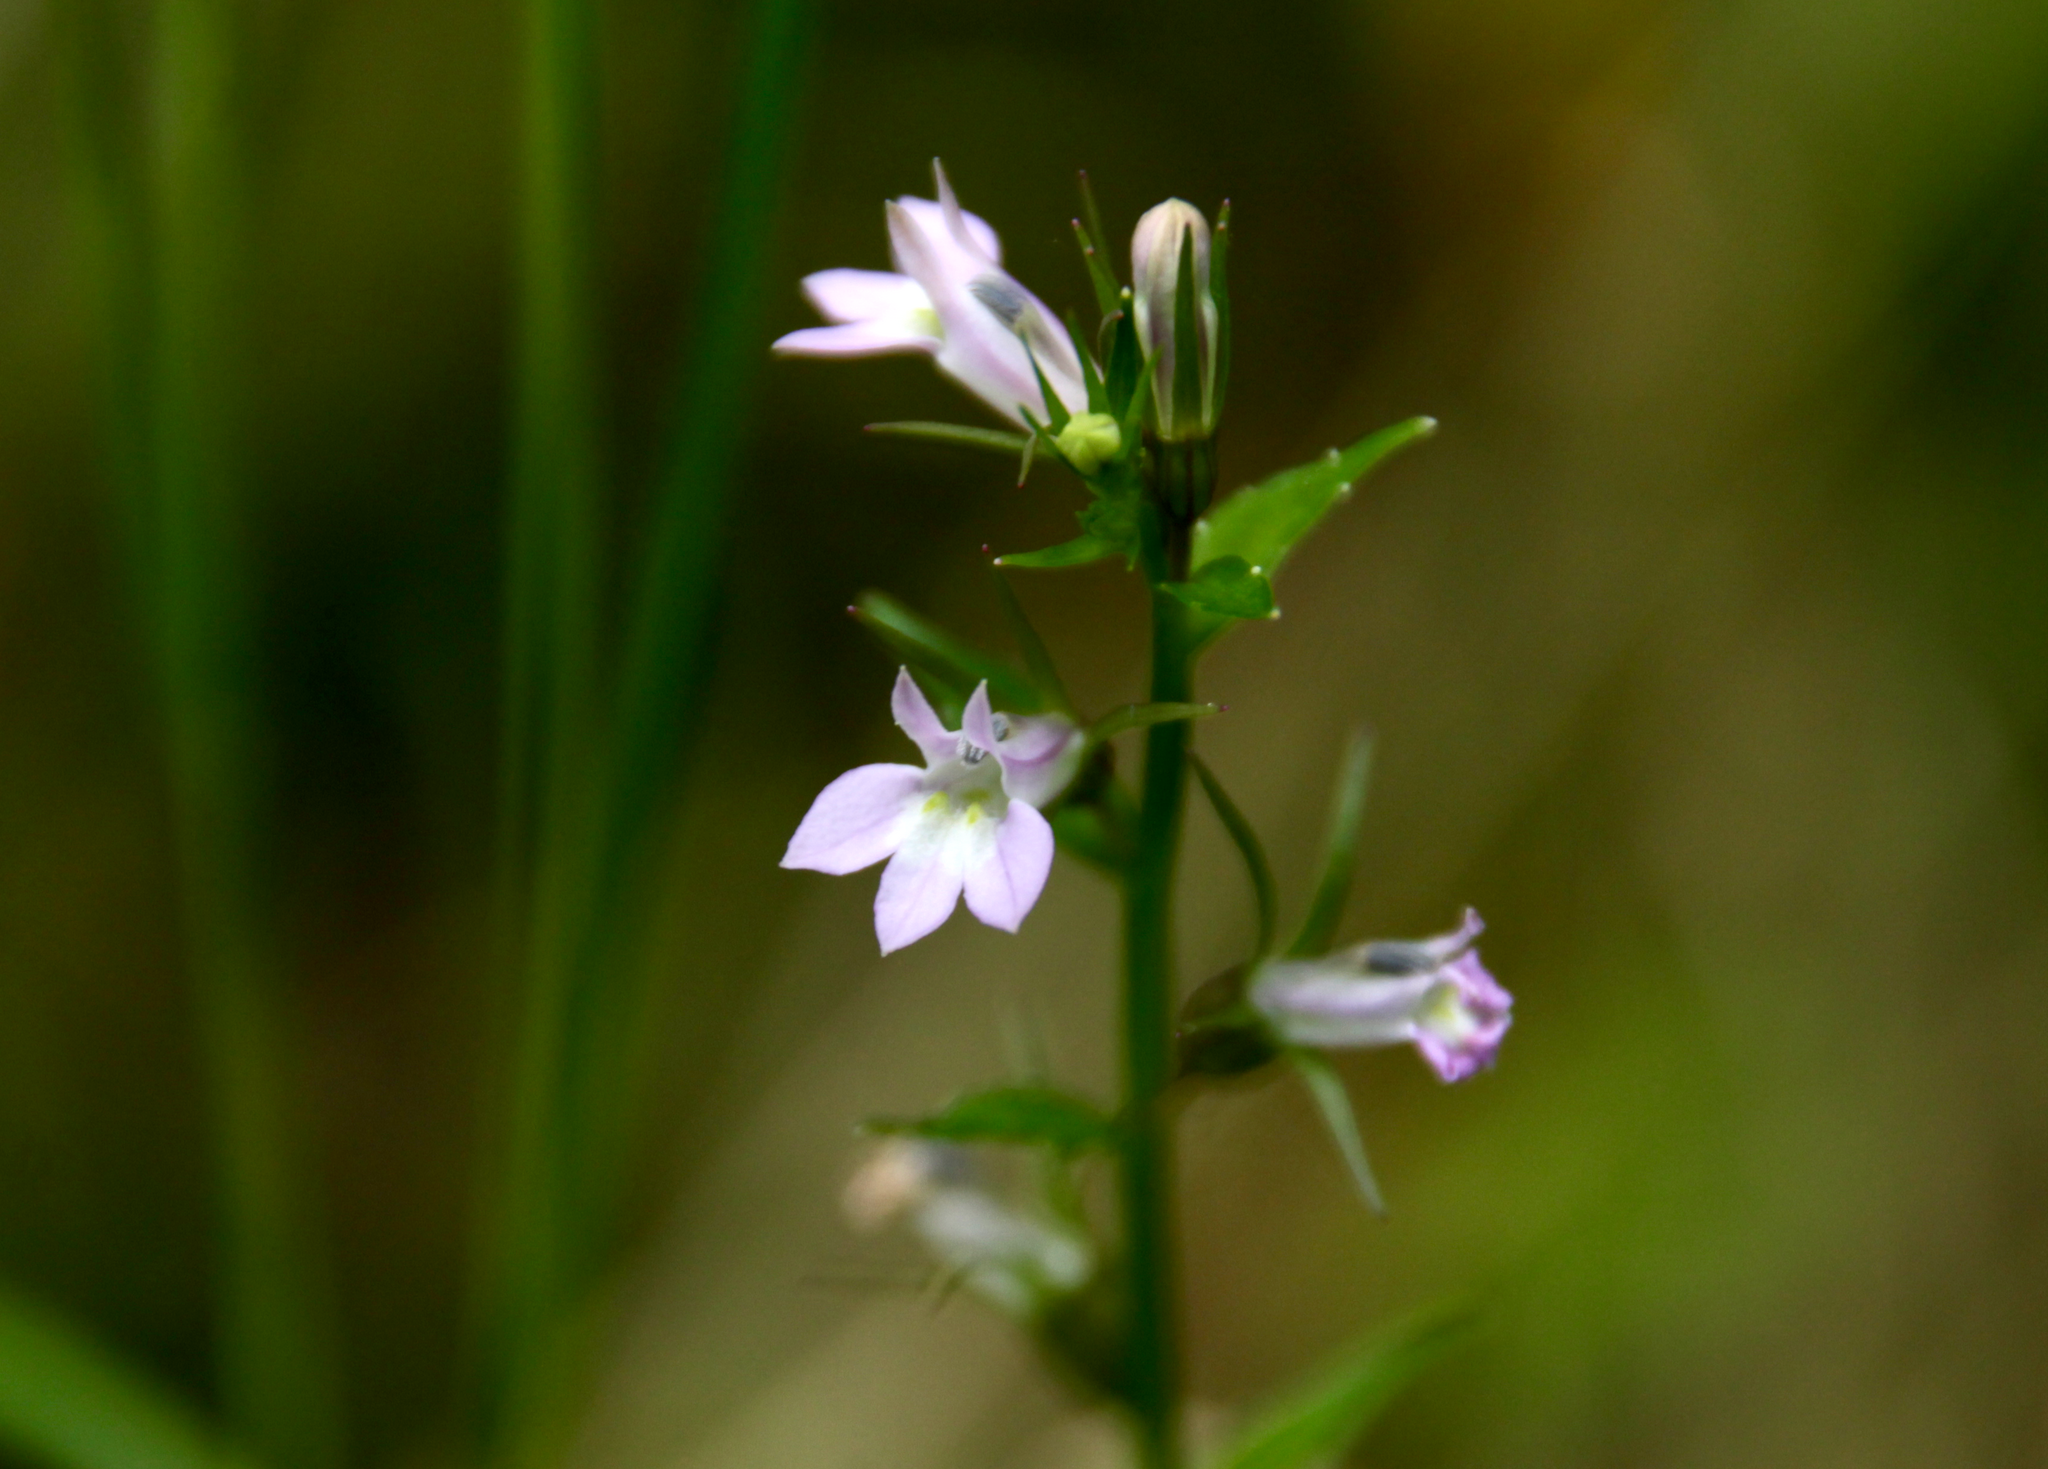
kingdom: Plantae
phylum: Tracheophyta
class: Magnoliopsida
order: Asterales
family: Campanulaceae
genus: Lobelia
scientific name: Lobelia inflata
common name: Indian tobacco
